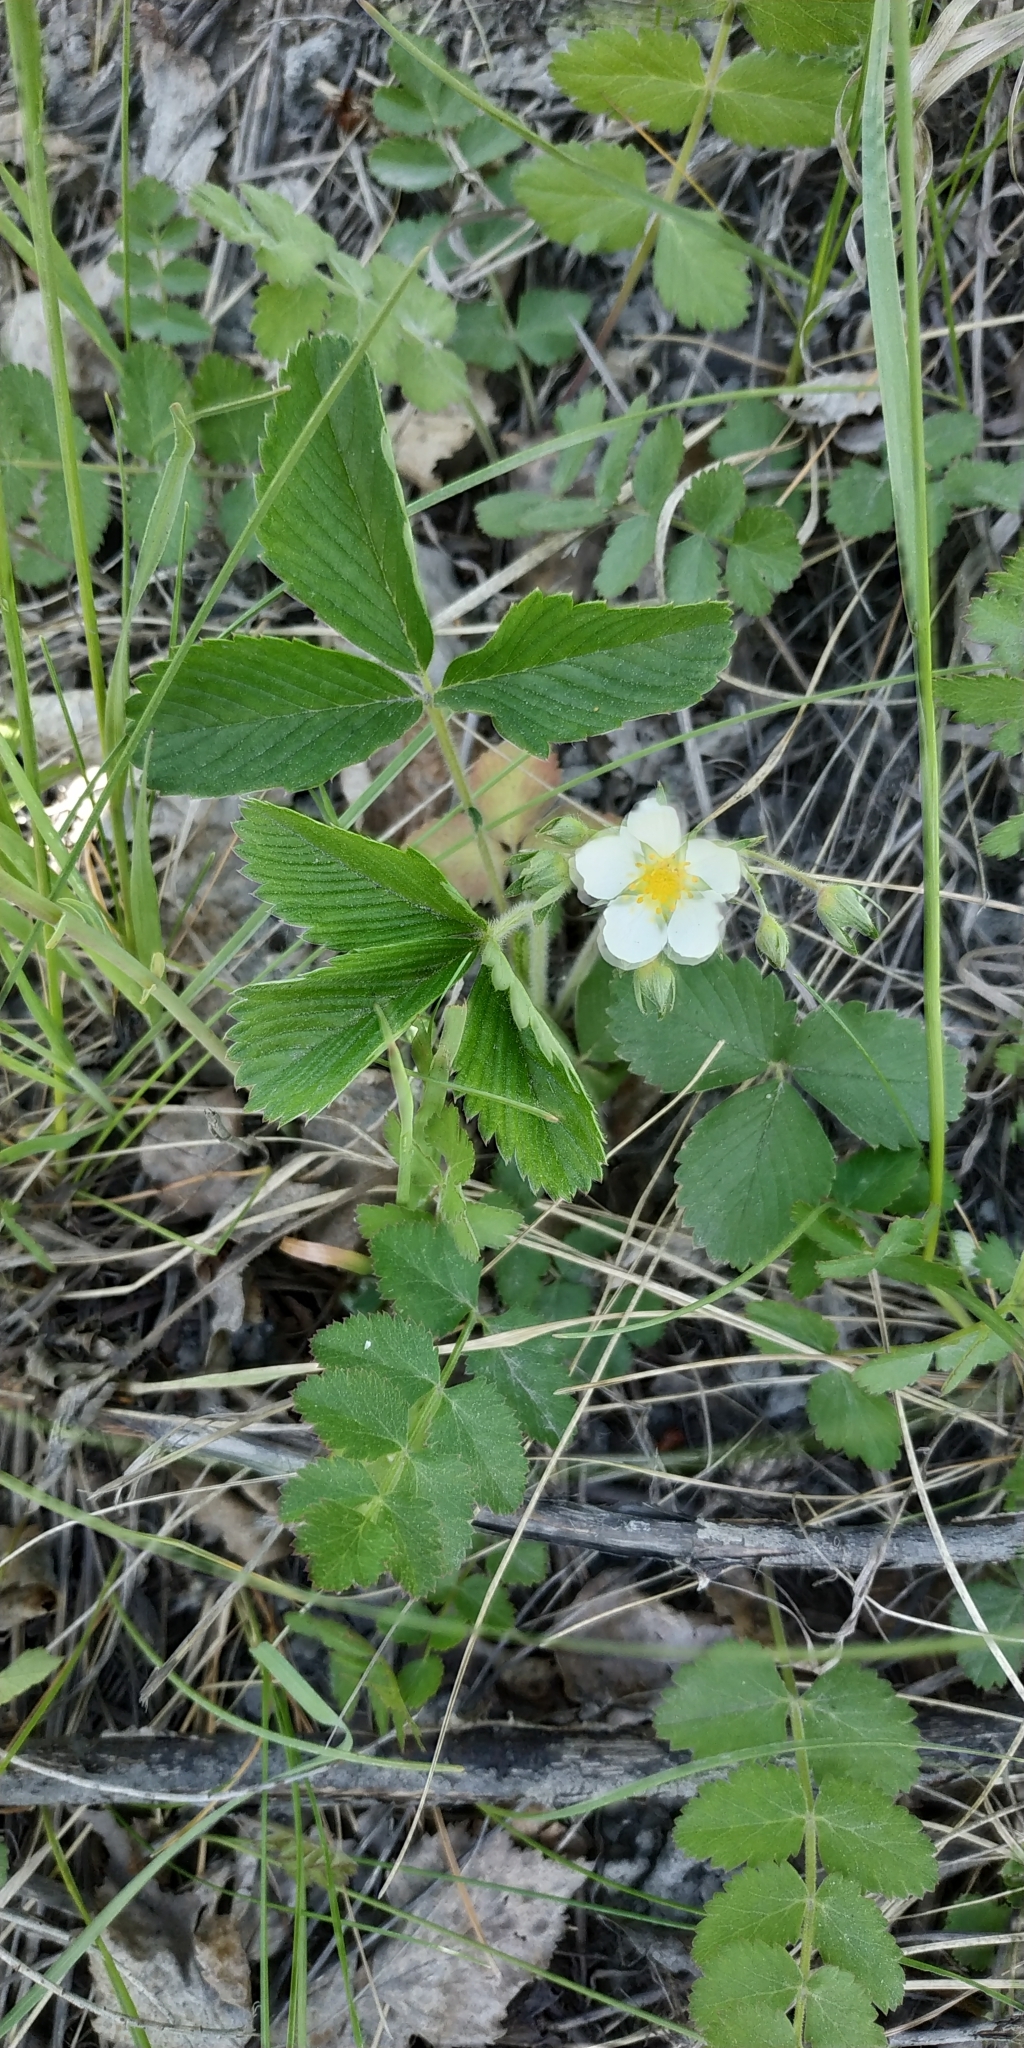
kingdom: Plantae
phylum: Tracheophyta
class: Magnoliopsida
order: Rosales
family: Rosaceae
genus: Fragaria
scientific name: Fragaria viridis
